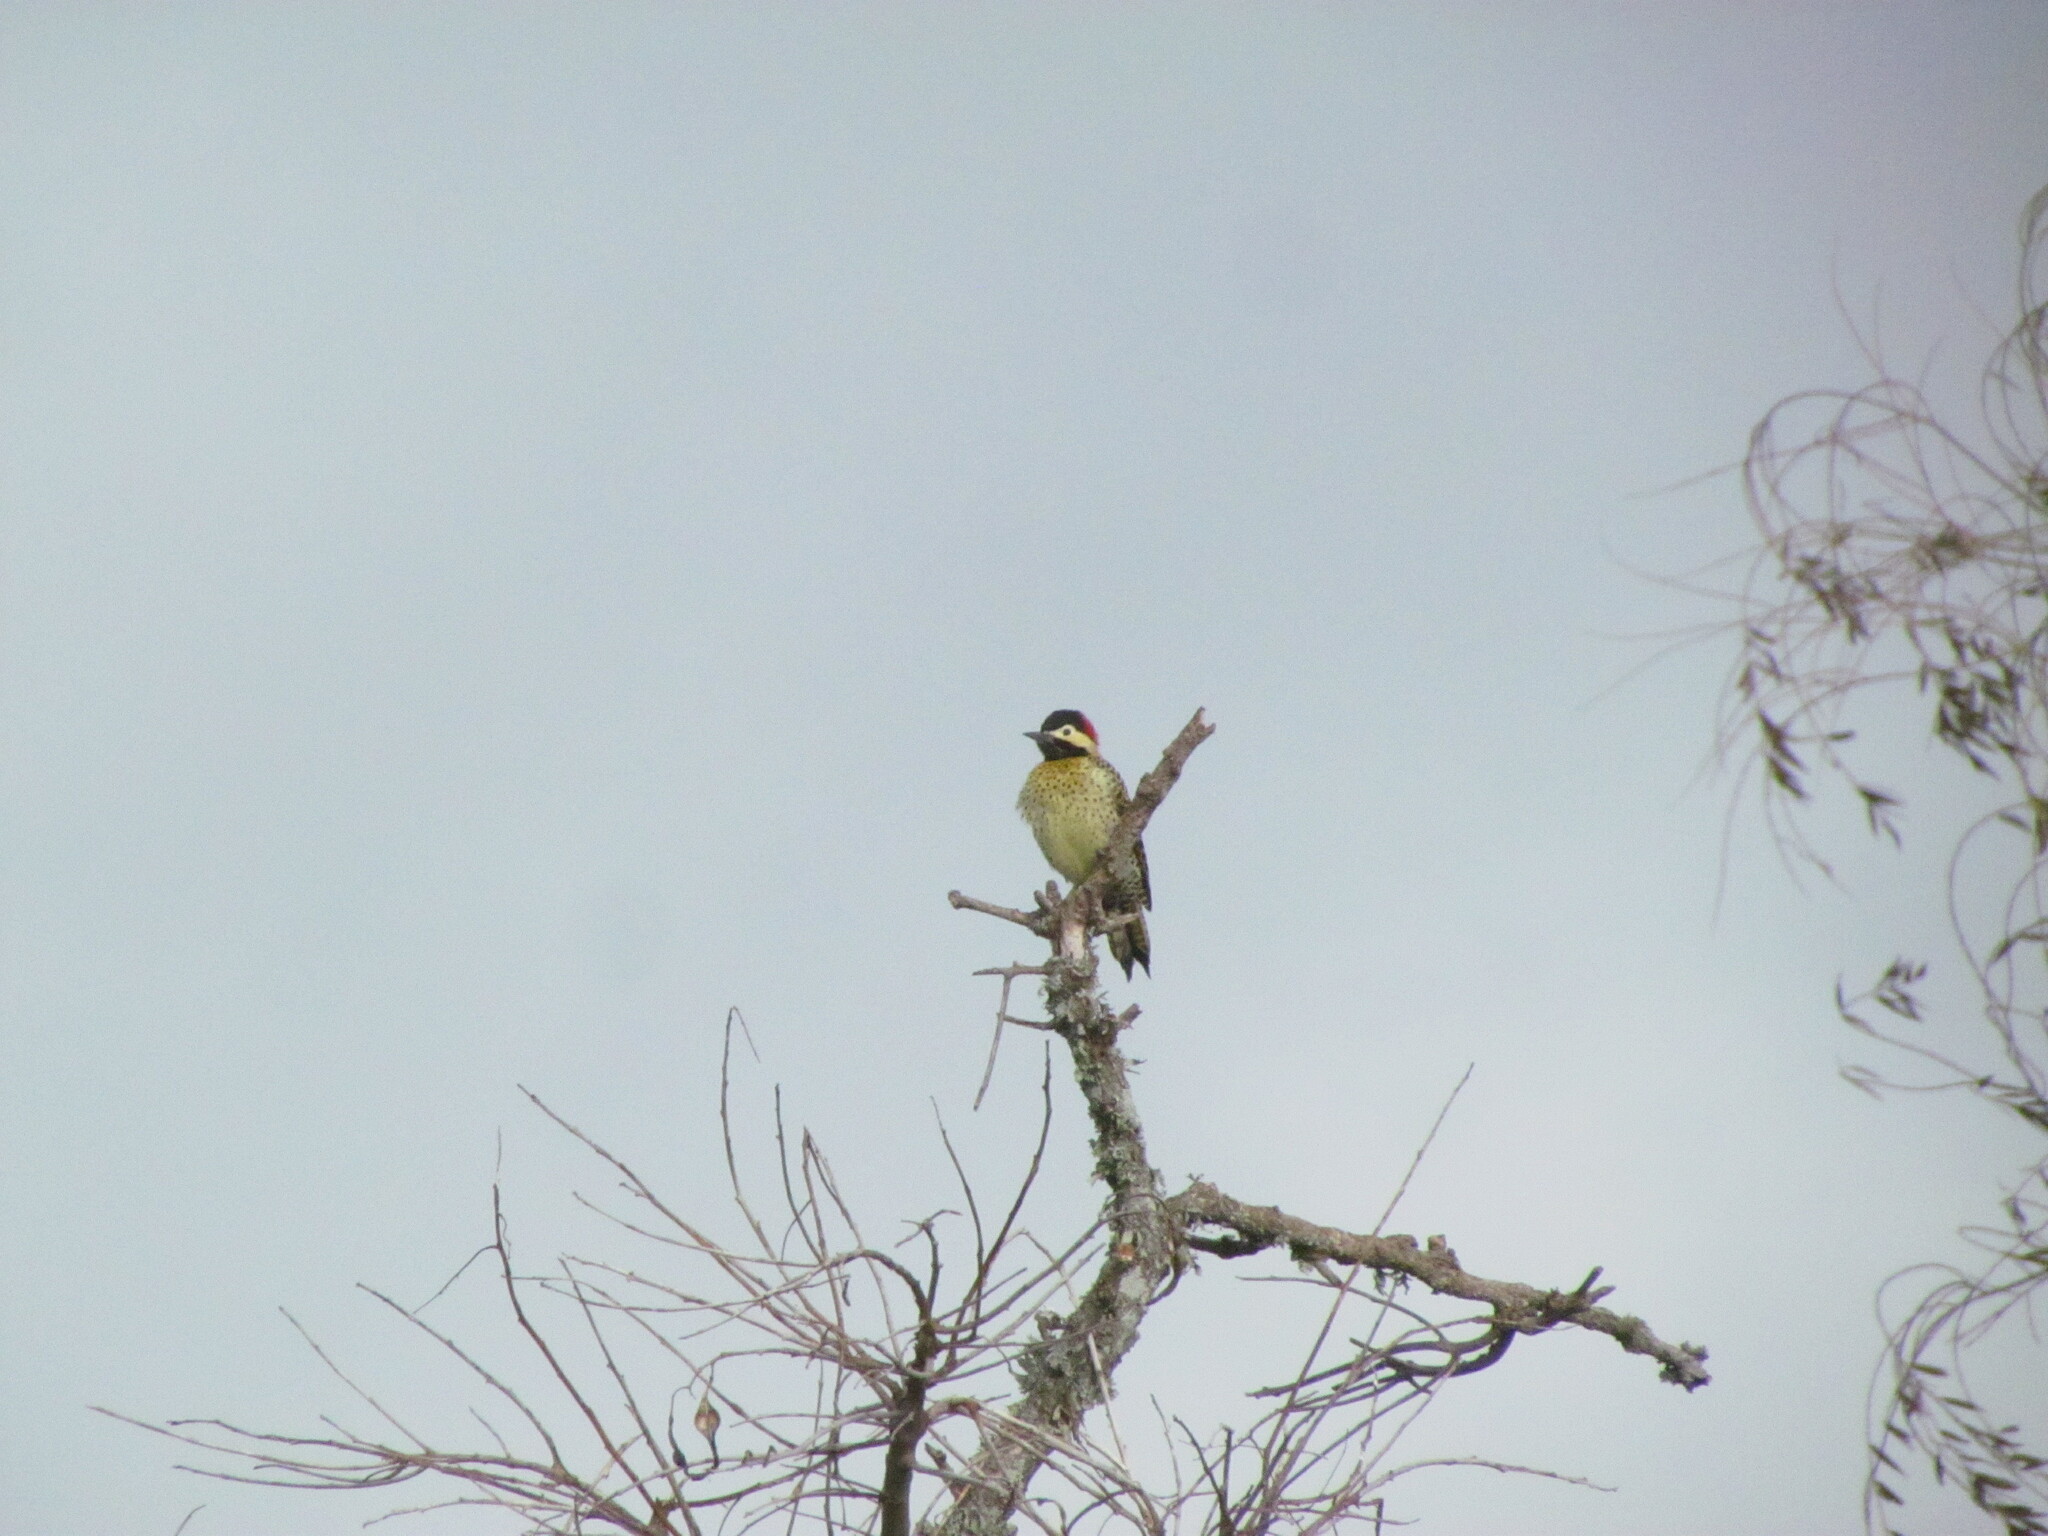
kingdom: Animalia
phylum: Chordata
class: Aves
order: Piciformes
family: Picidae
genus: Colaptes
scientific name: Colaptes melanochloros
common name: Green-barred woodpecker
